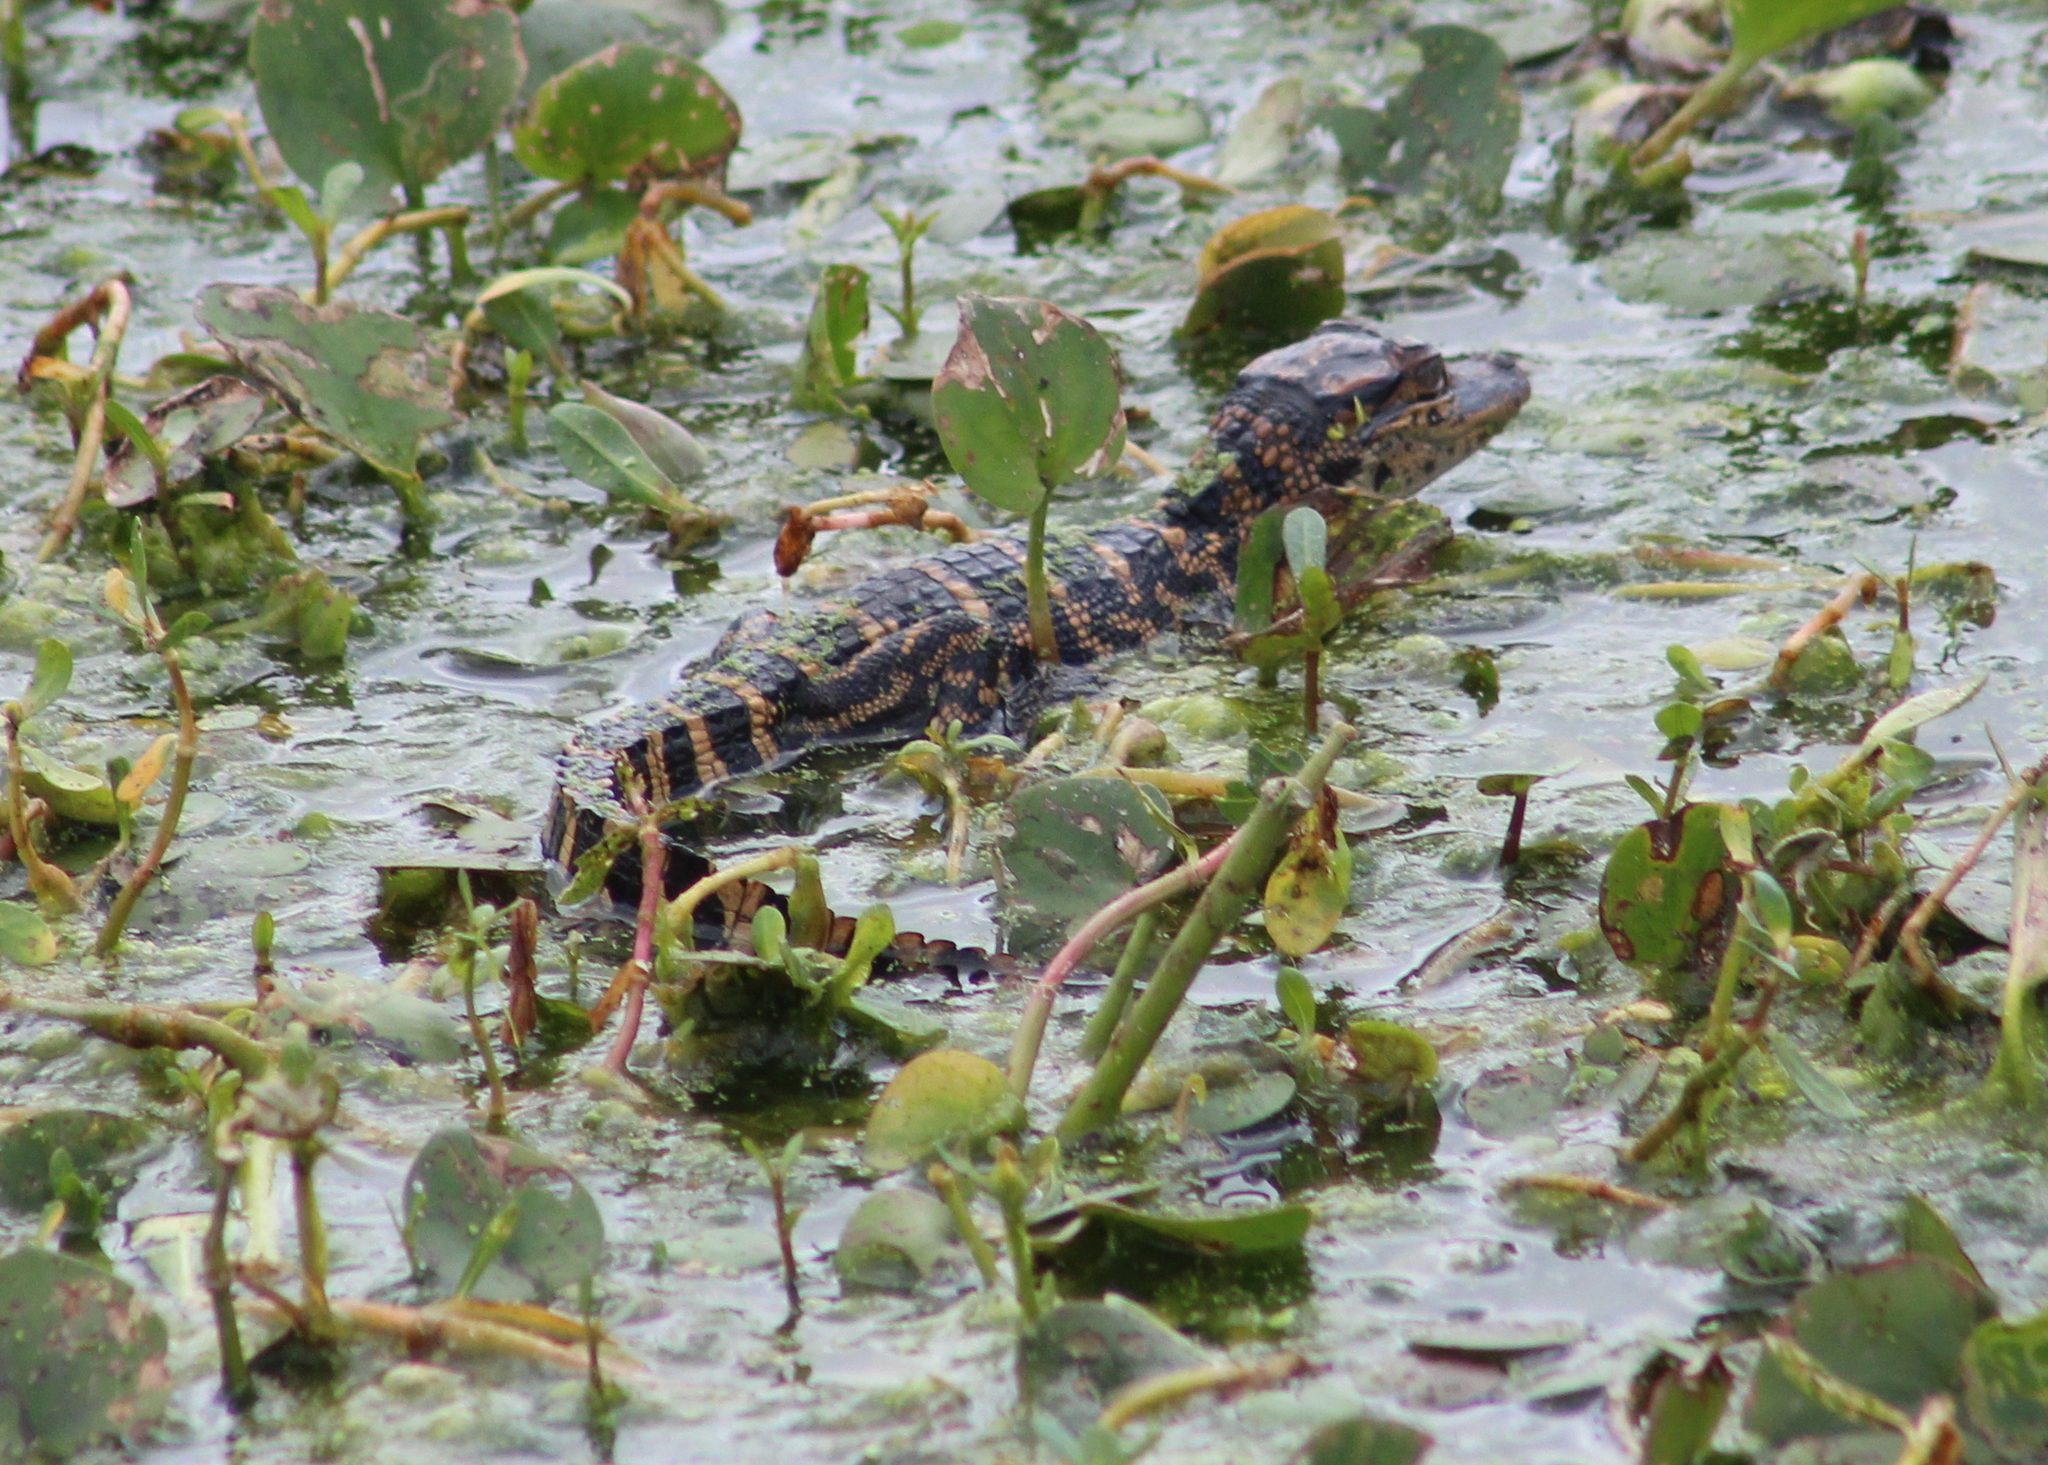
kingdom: Animalia
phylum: Chordata
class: Crocodylia
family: Alligatoridae
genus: Alligator
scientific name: Alligator mississippiensis
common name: American alligator
